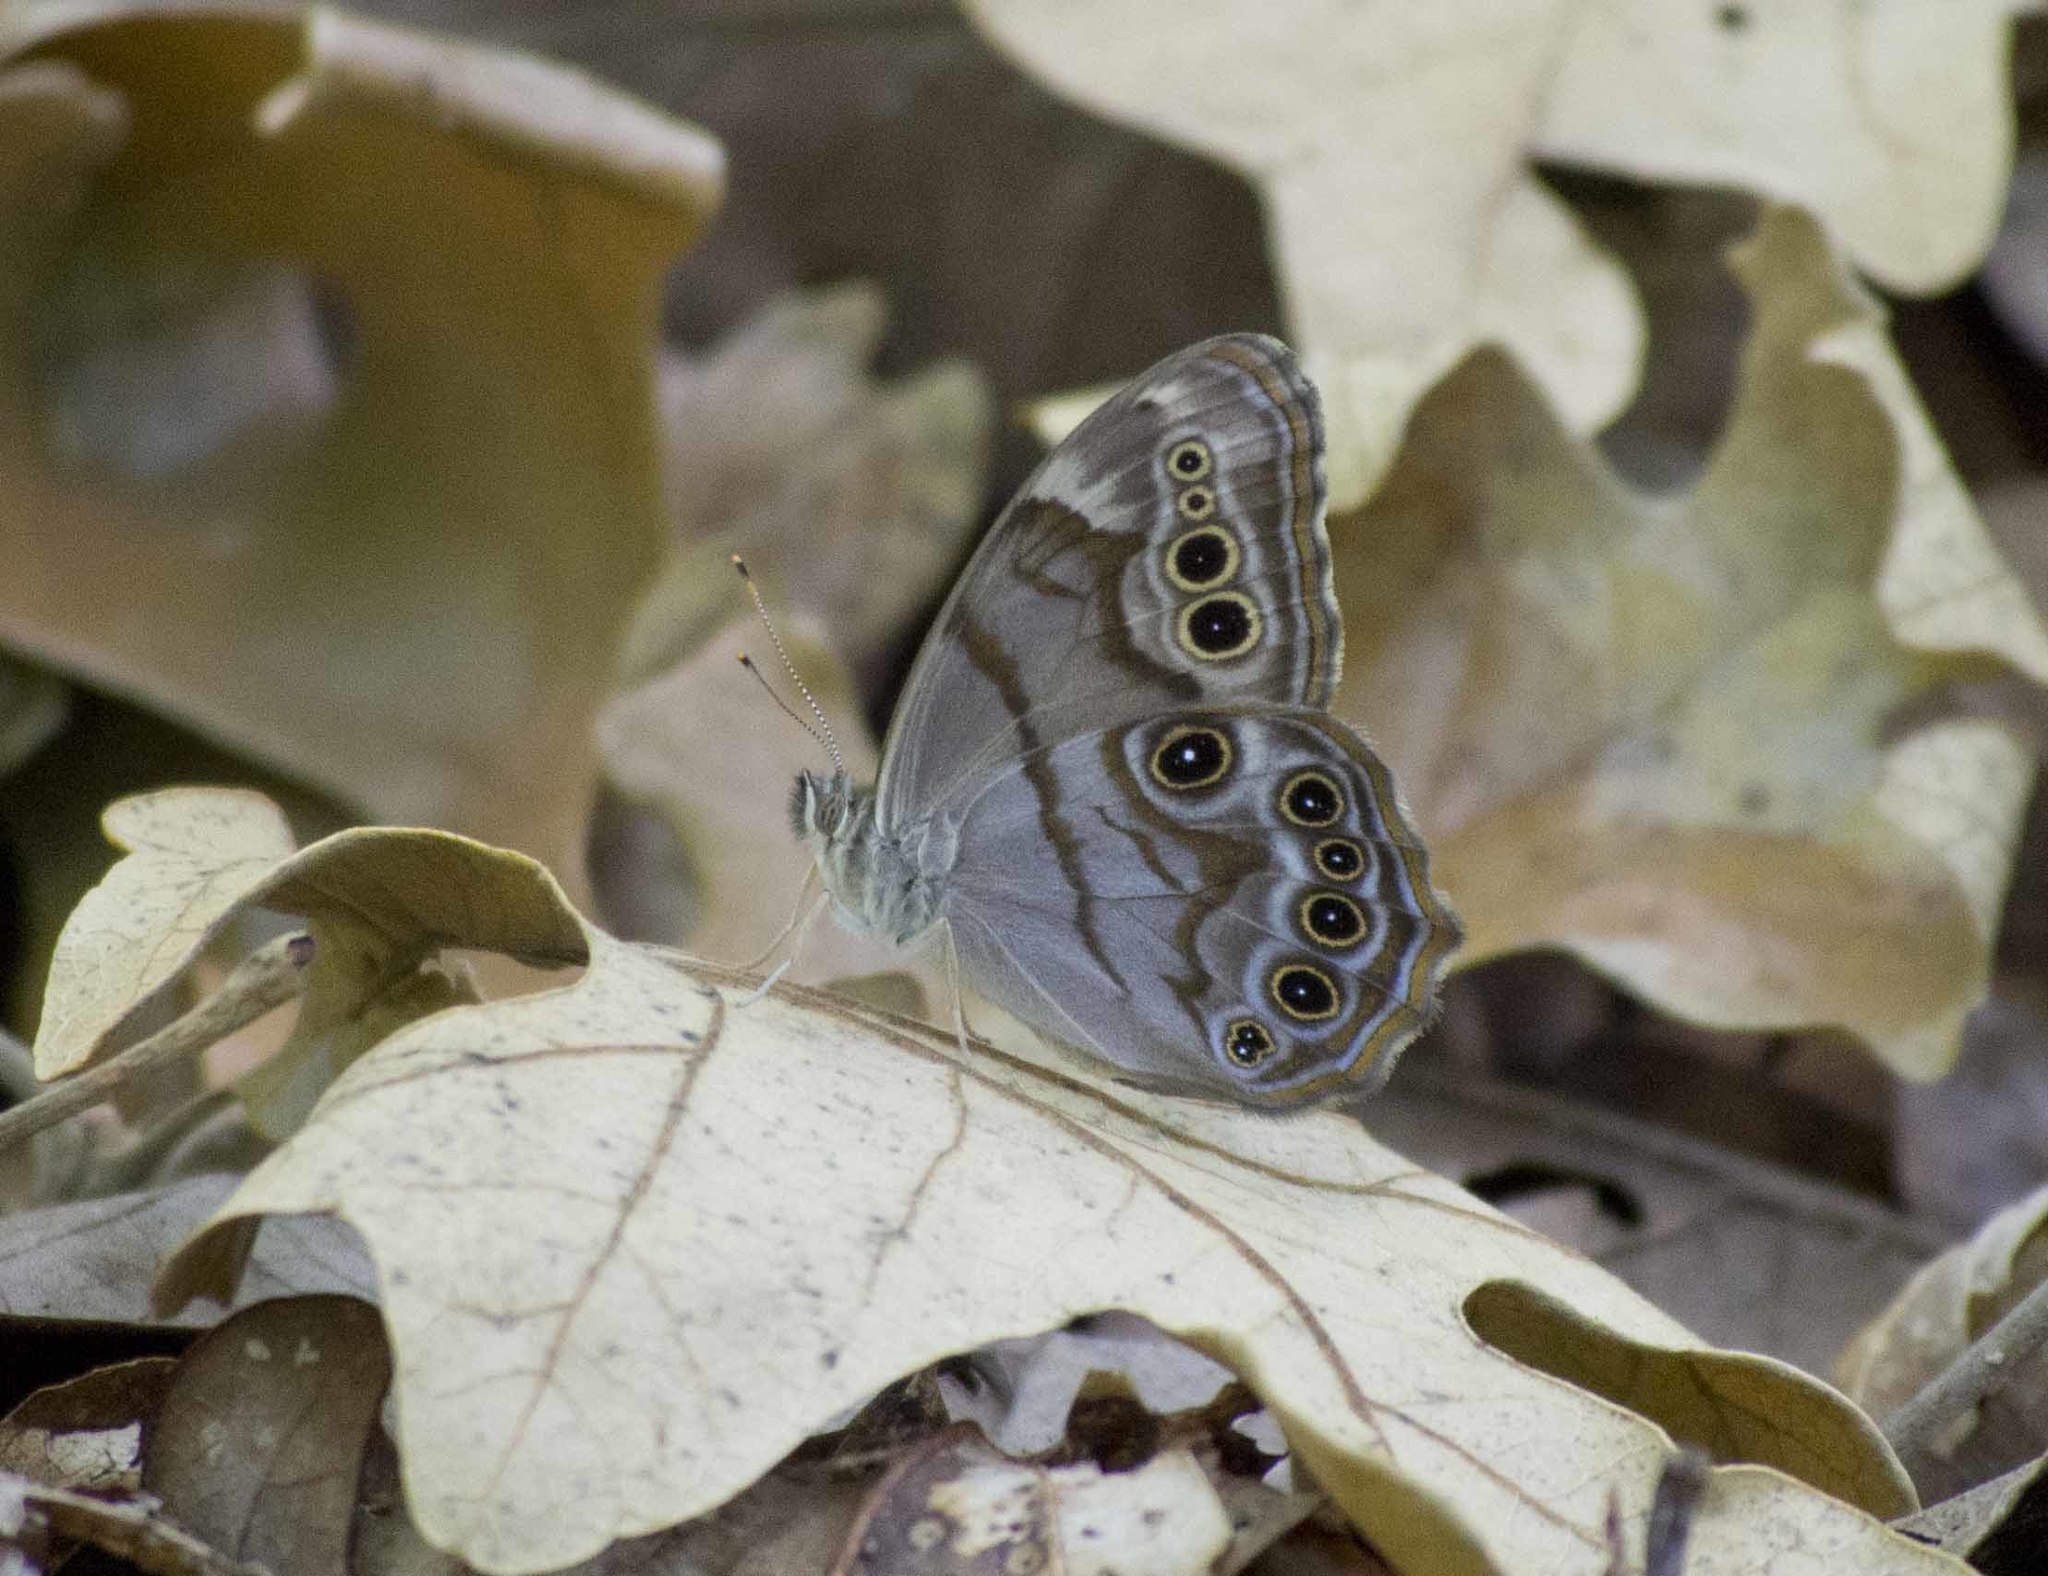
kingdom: Animalia
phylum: Arthropoda
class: Insecta
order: Lepidoptera
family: Nymphalidae
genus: Lethe
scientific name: Lethe anthedon
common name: Northern pearly-eye
